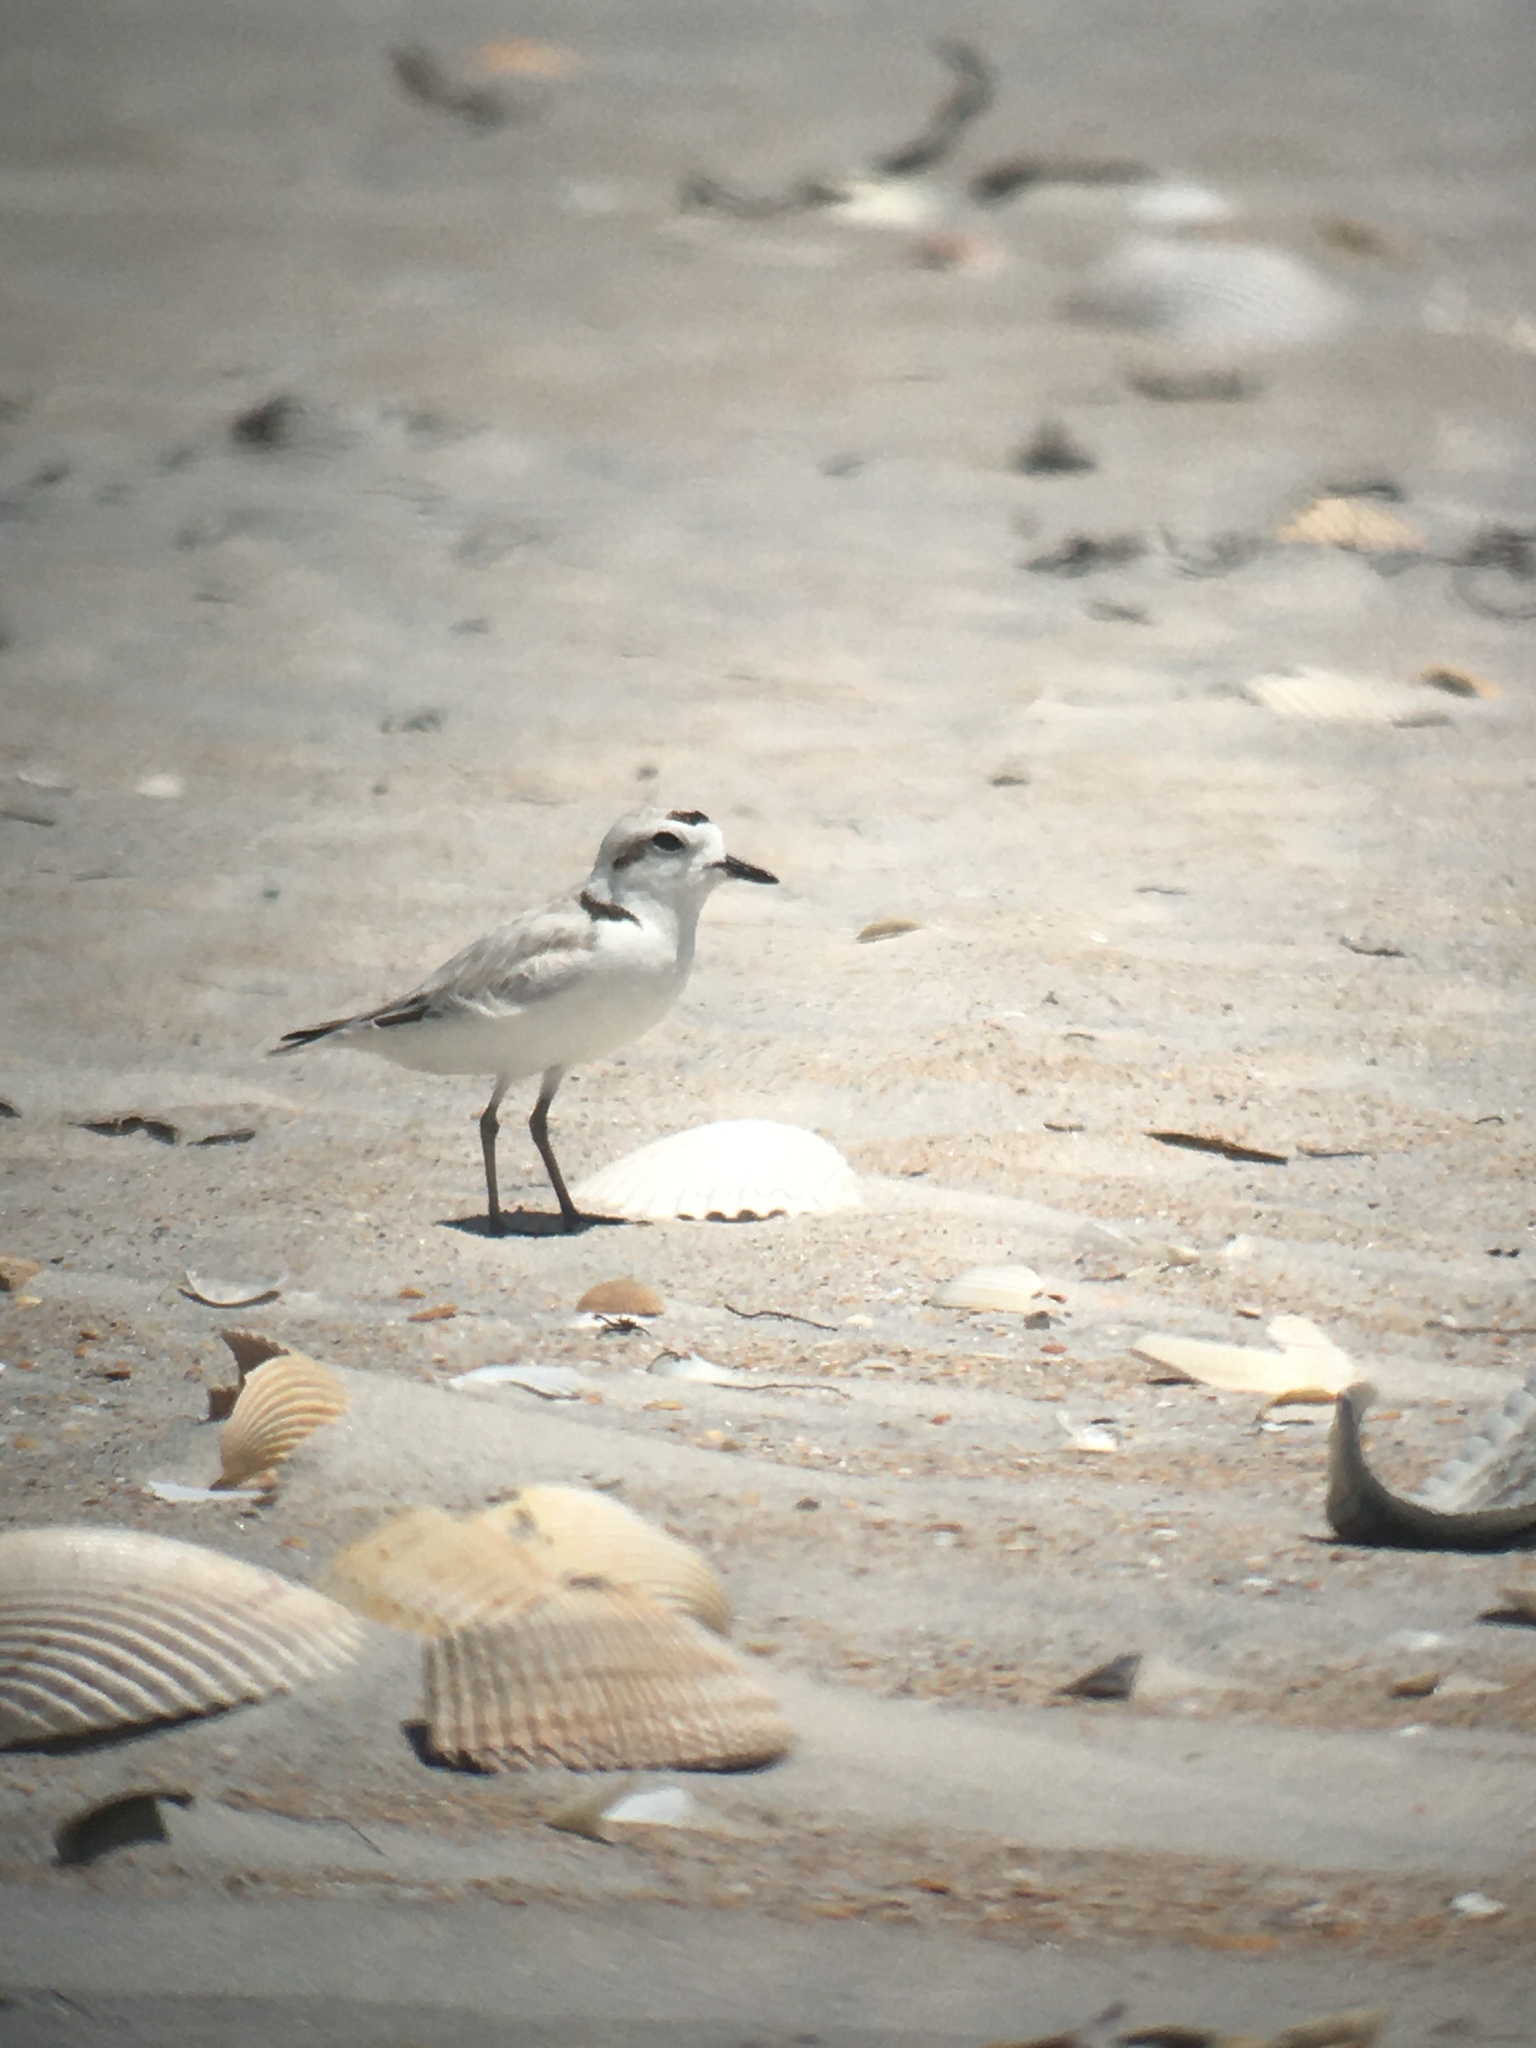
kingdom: Animalia
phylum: Chordata
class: Aves
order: Charadriiformes
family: Charadriidae
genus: Anarhynchus
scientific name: Anarhynchus
